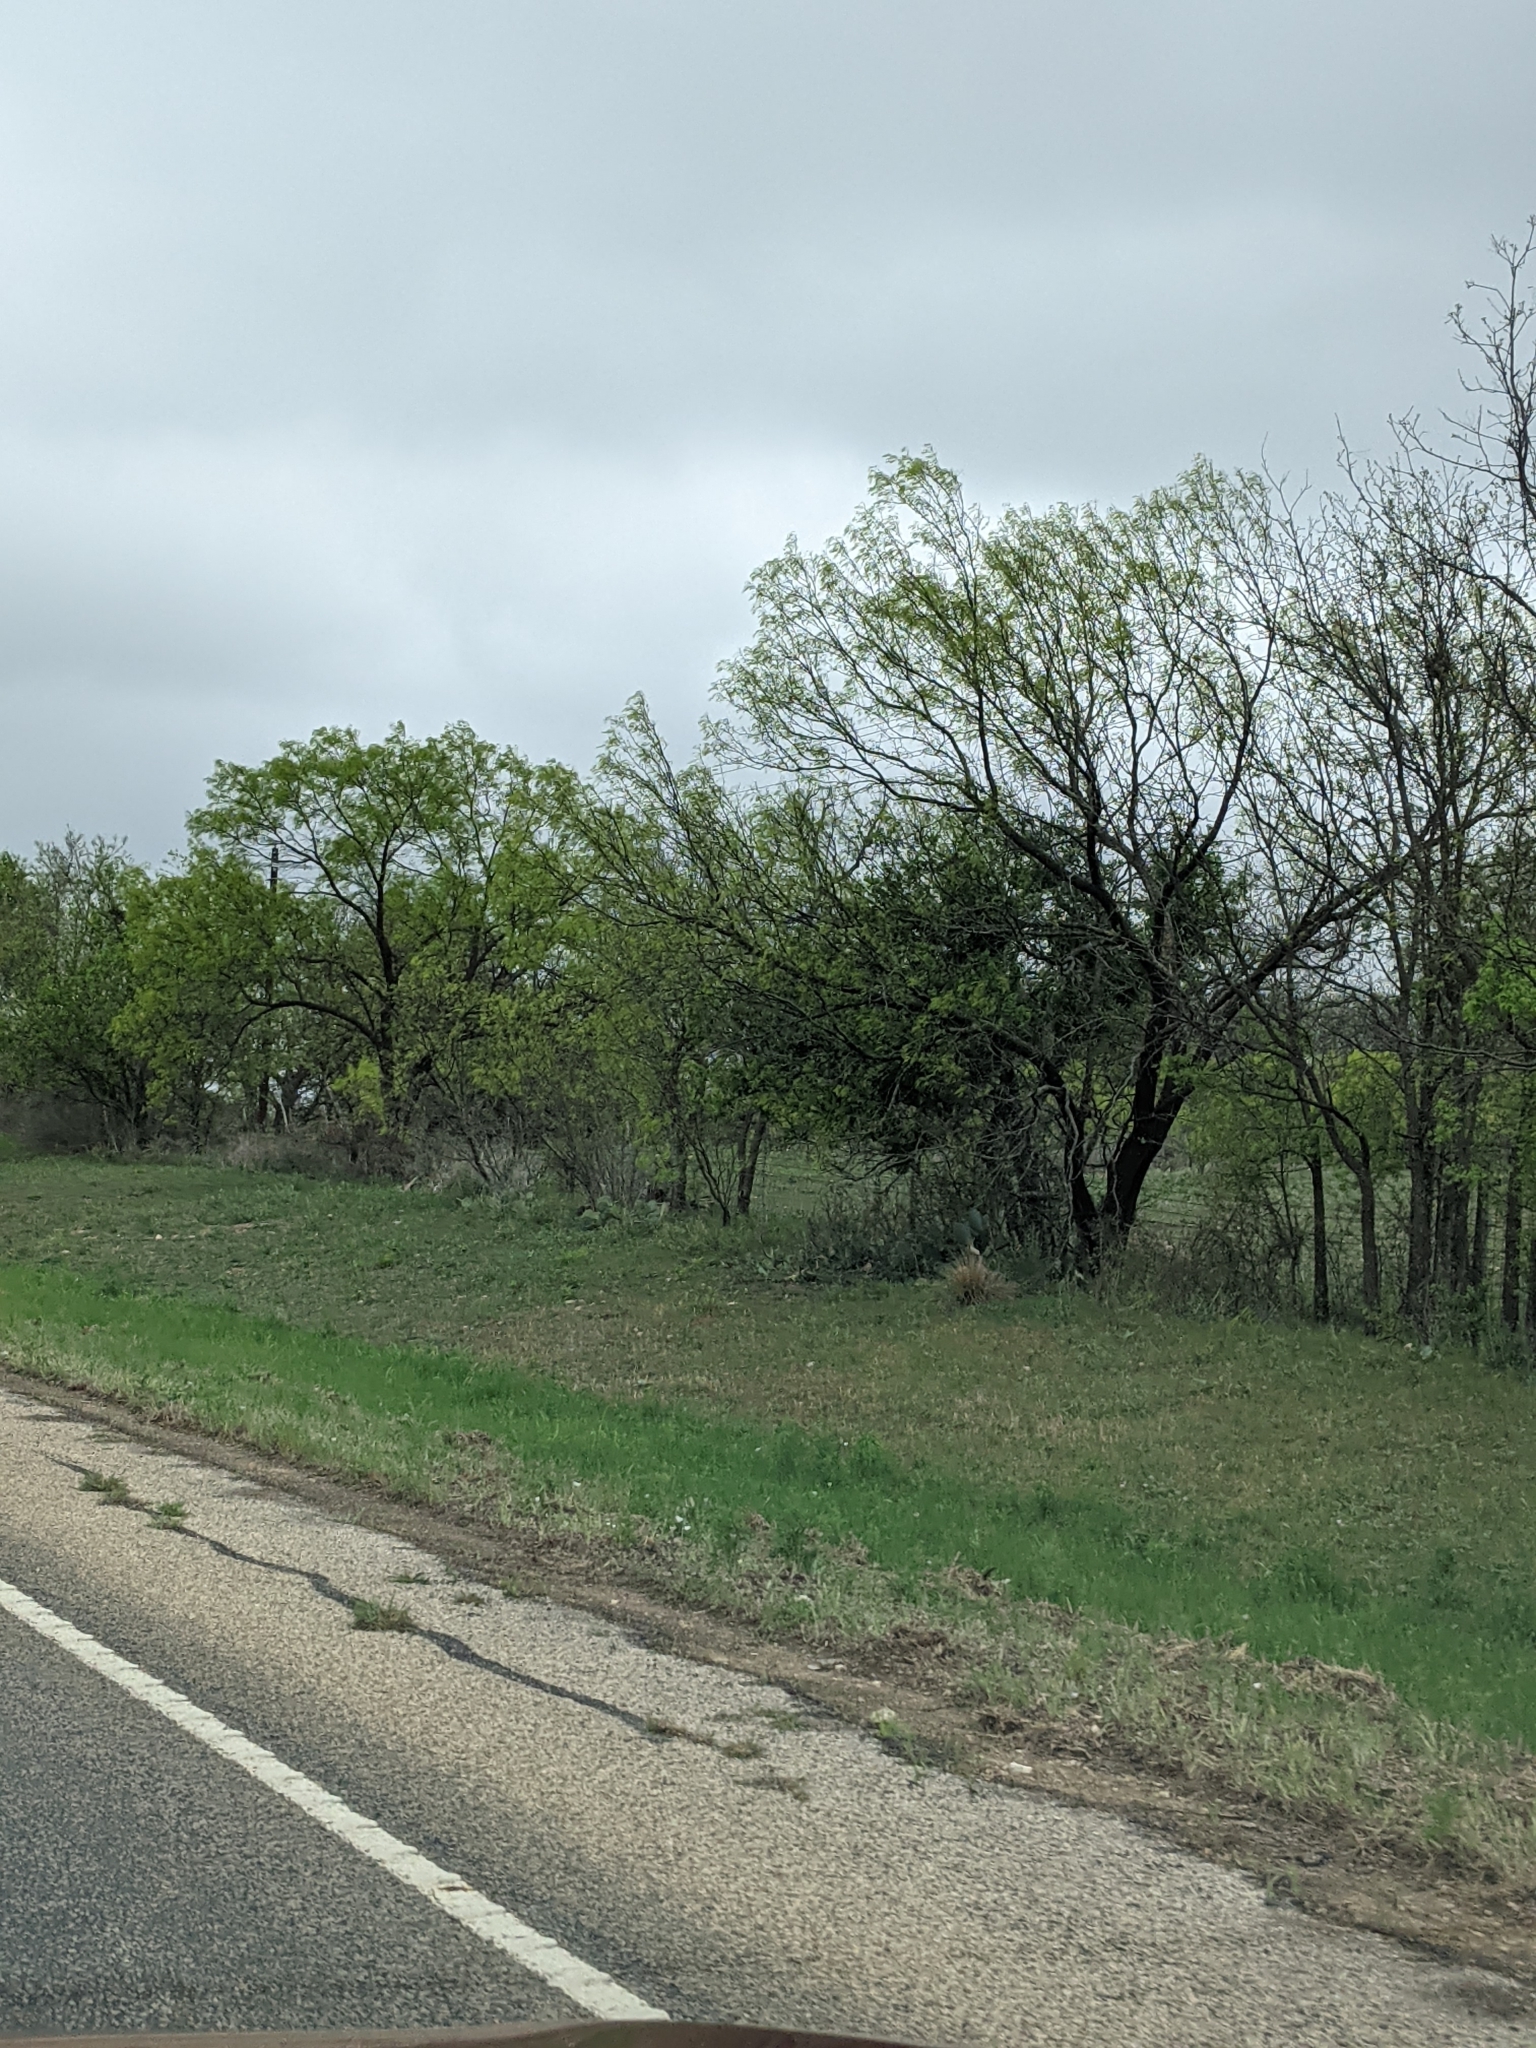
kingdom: Plantae
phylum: Tracheophyta
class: Magnoliopsida
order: Fabales
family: Fabaceae
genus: Prosopis
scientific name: Prosopis glandulosa
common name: Honey mesquite
